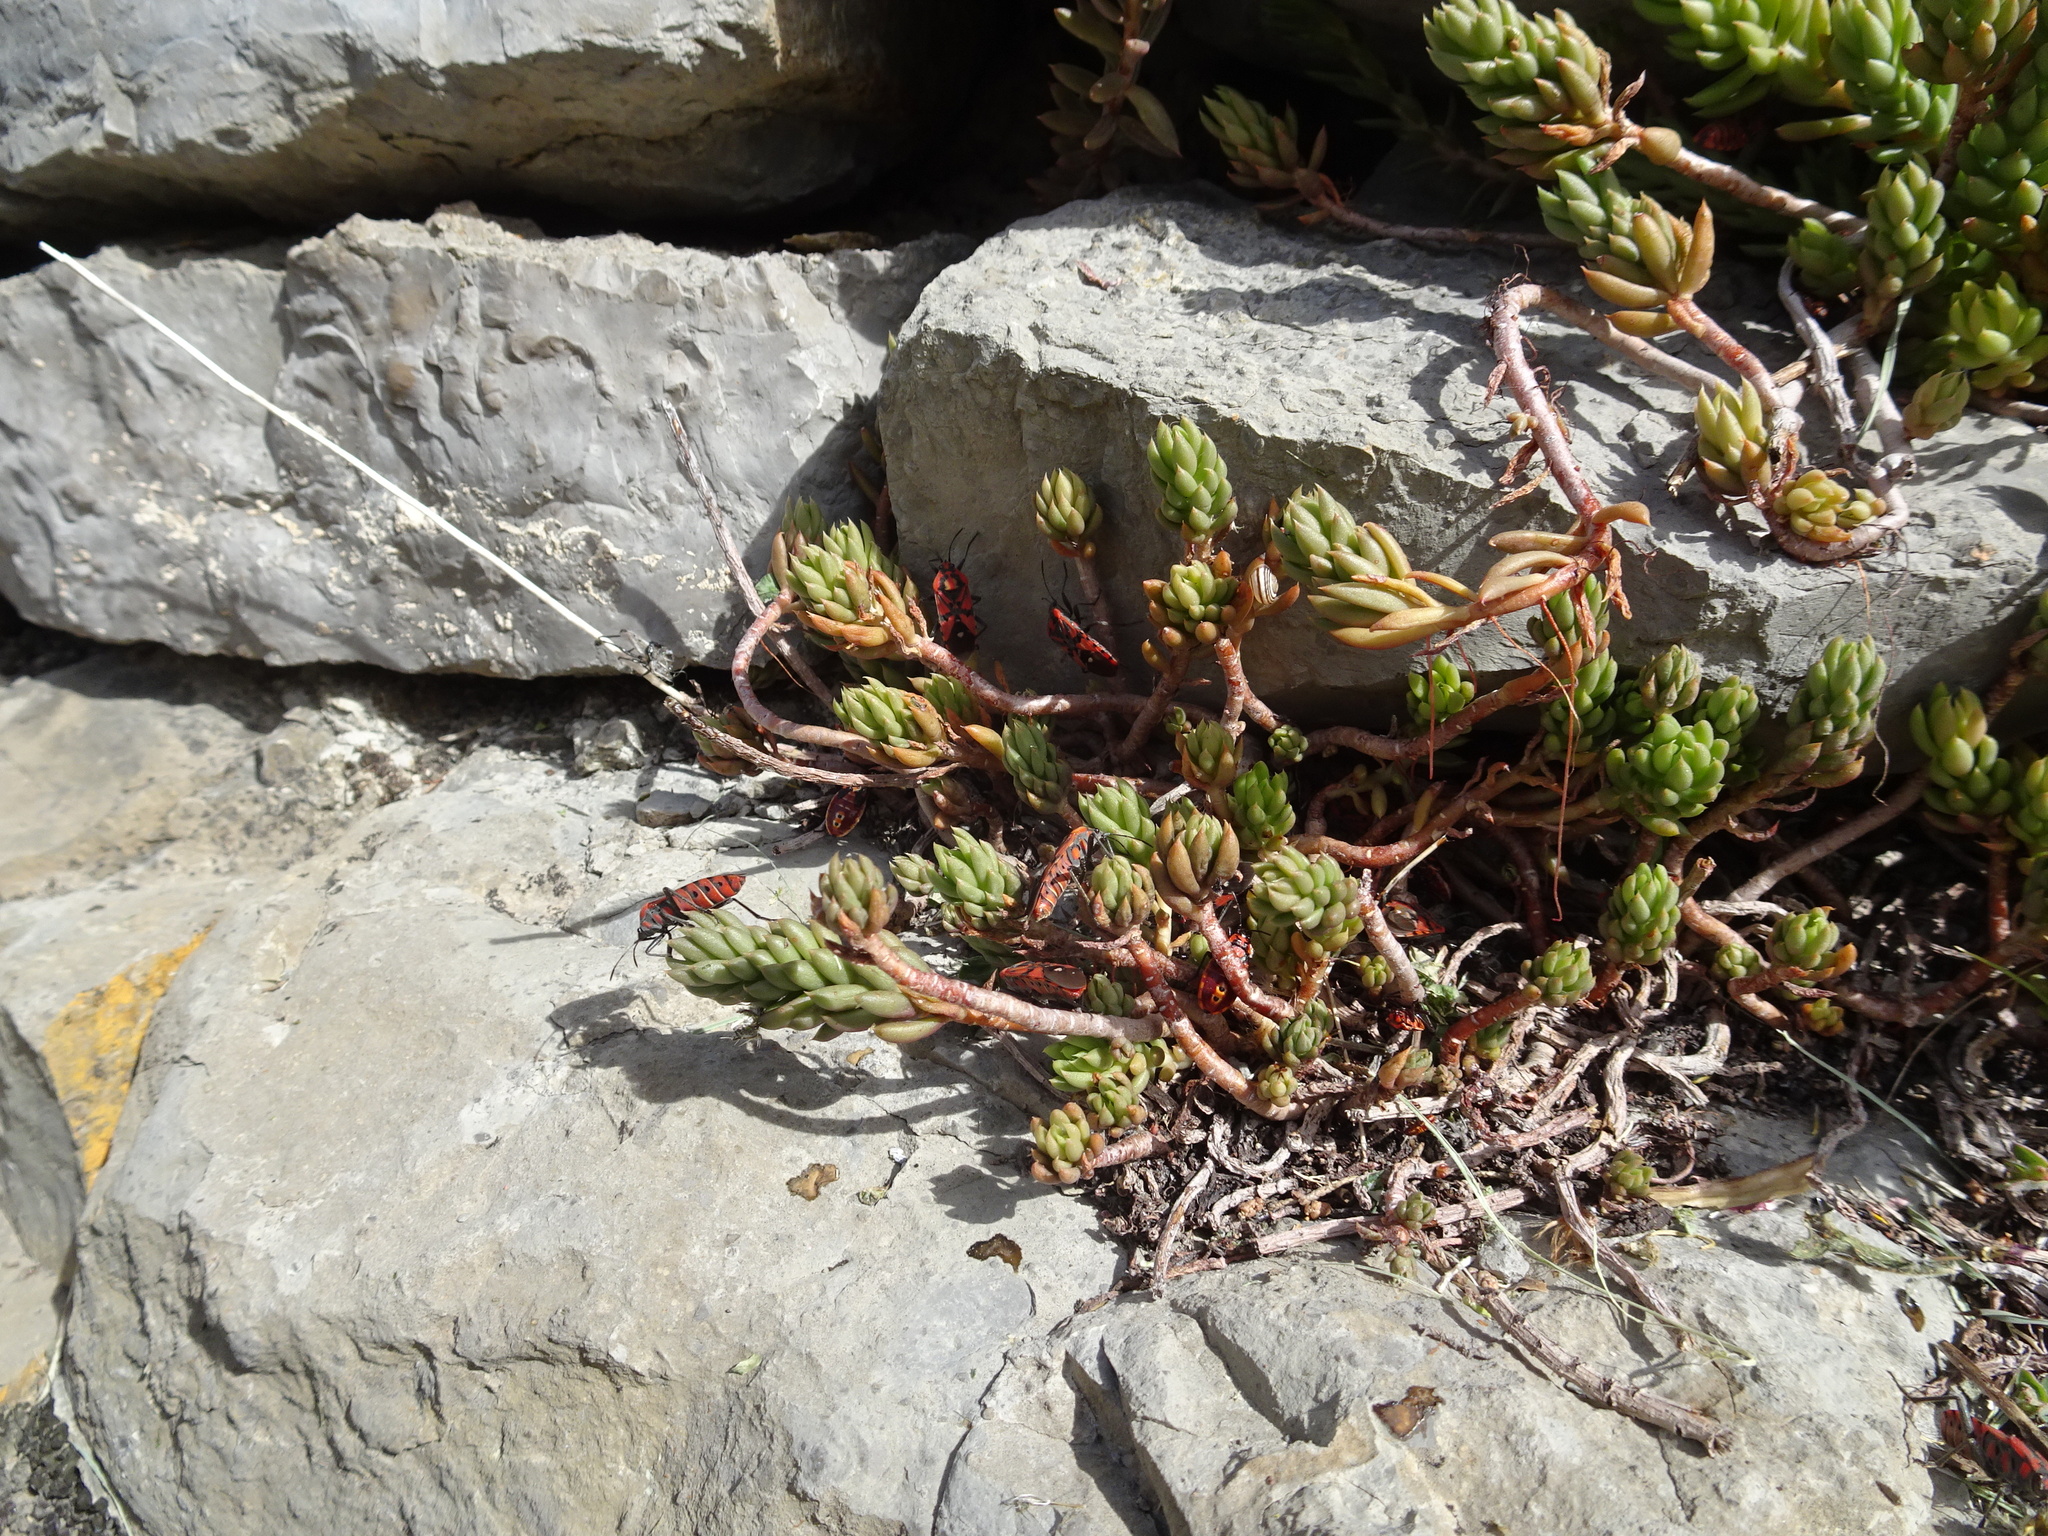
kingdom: Animalia
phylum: Arthropoda
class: Insecta
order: Hemiptera
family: Lygaeidae
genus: Spilostethus
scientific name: Spilostethus pandurus
